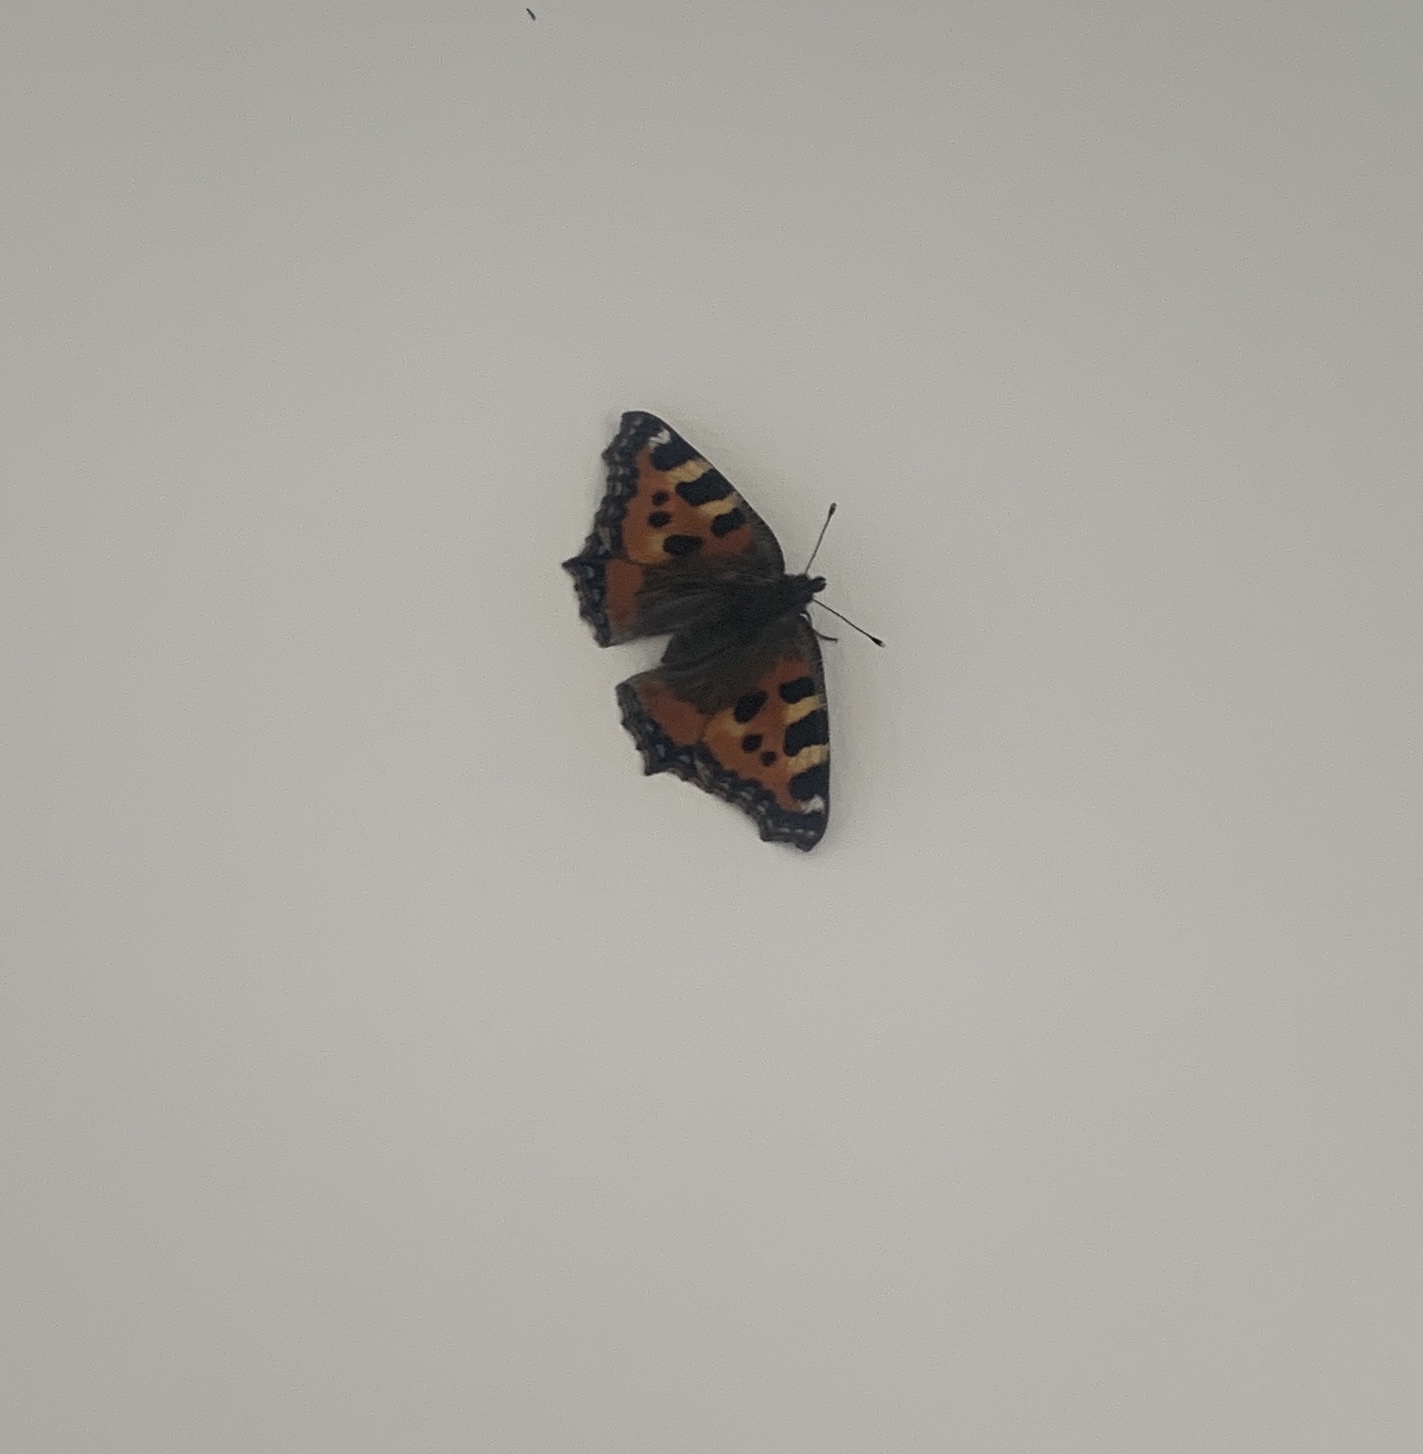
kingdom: Animalia
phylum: Arthropoda
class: Insecta
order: Lepidoptera
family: Nymphalidae
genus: Aglais
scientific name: Aglais urticae
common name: Small tortoiseshell
